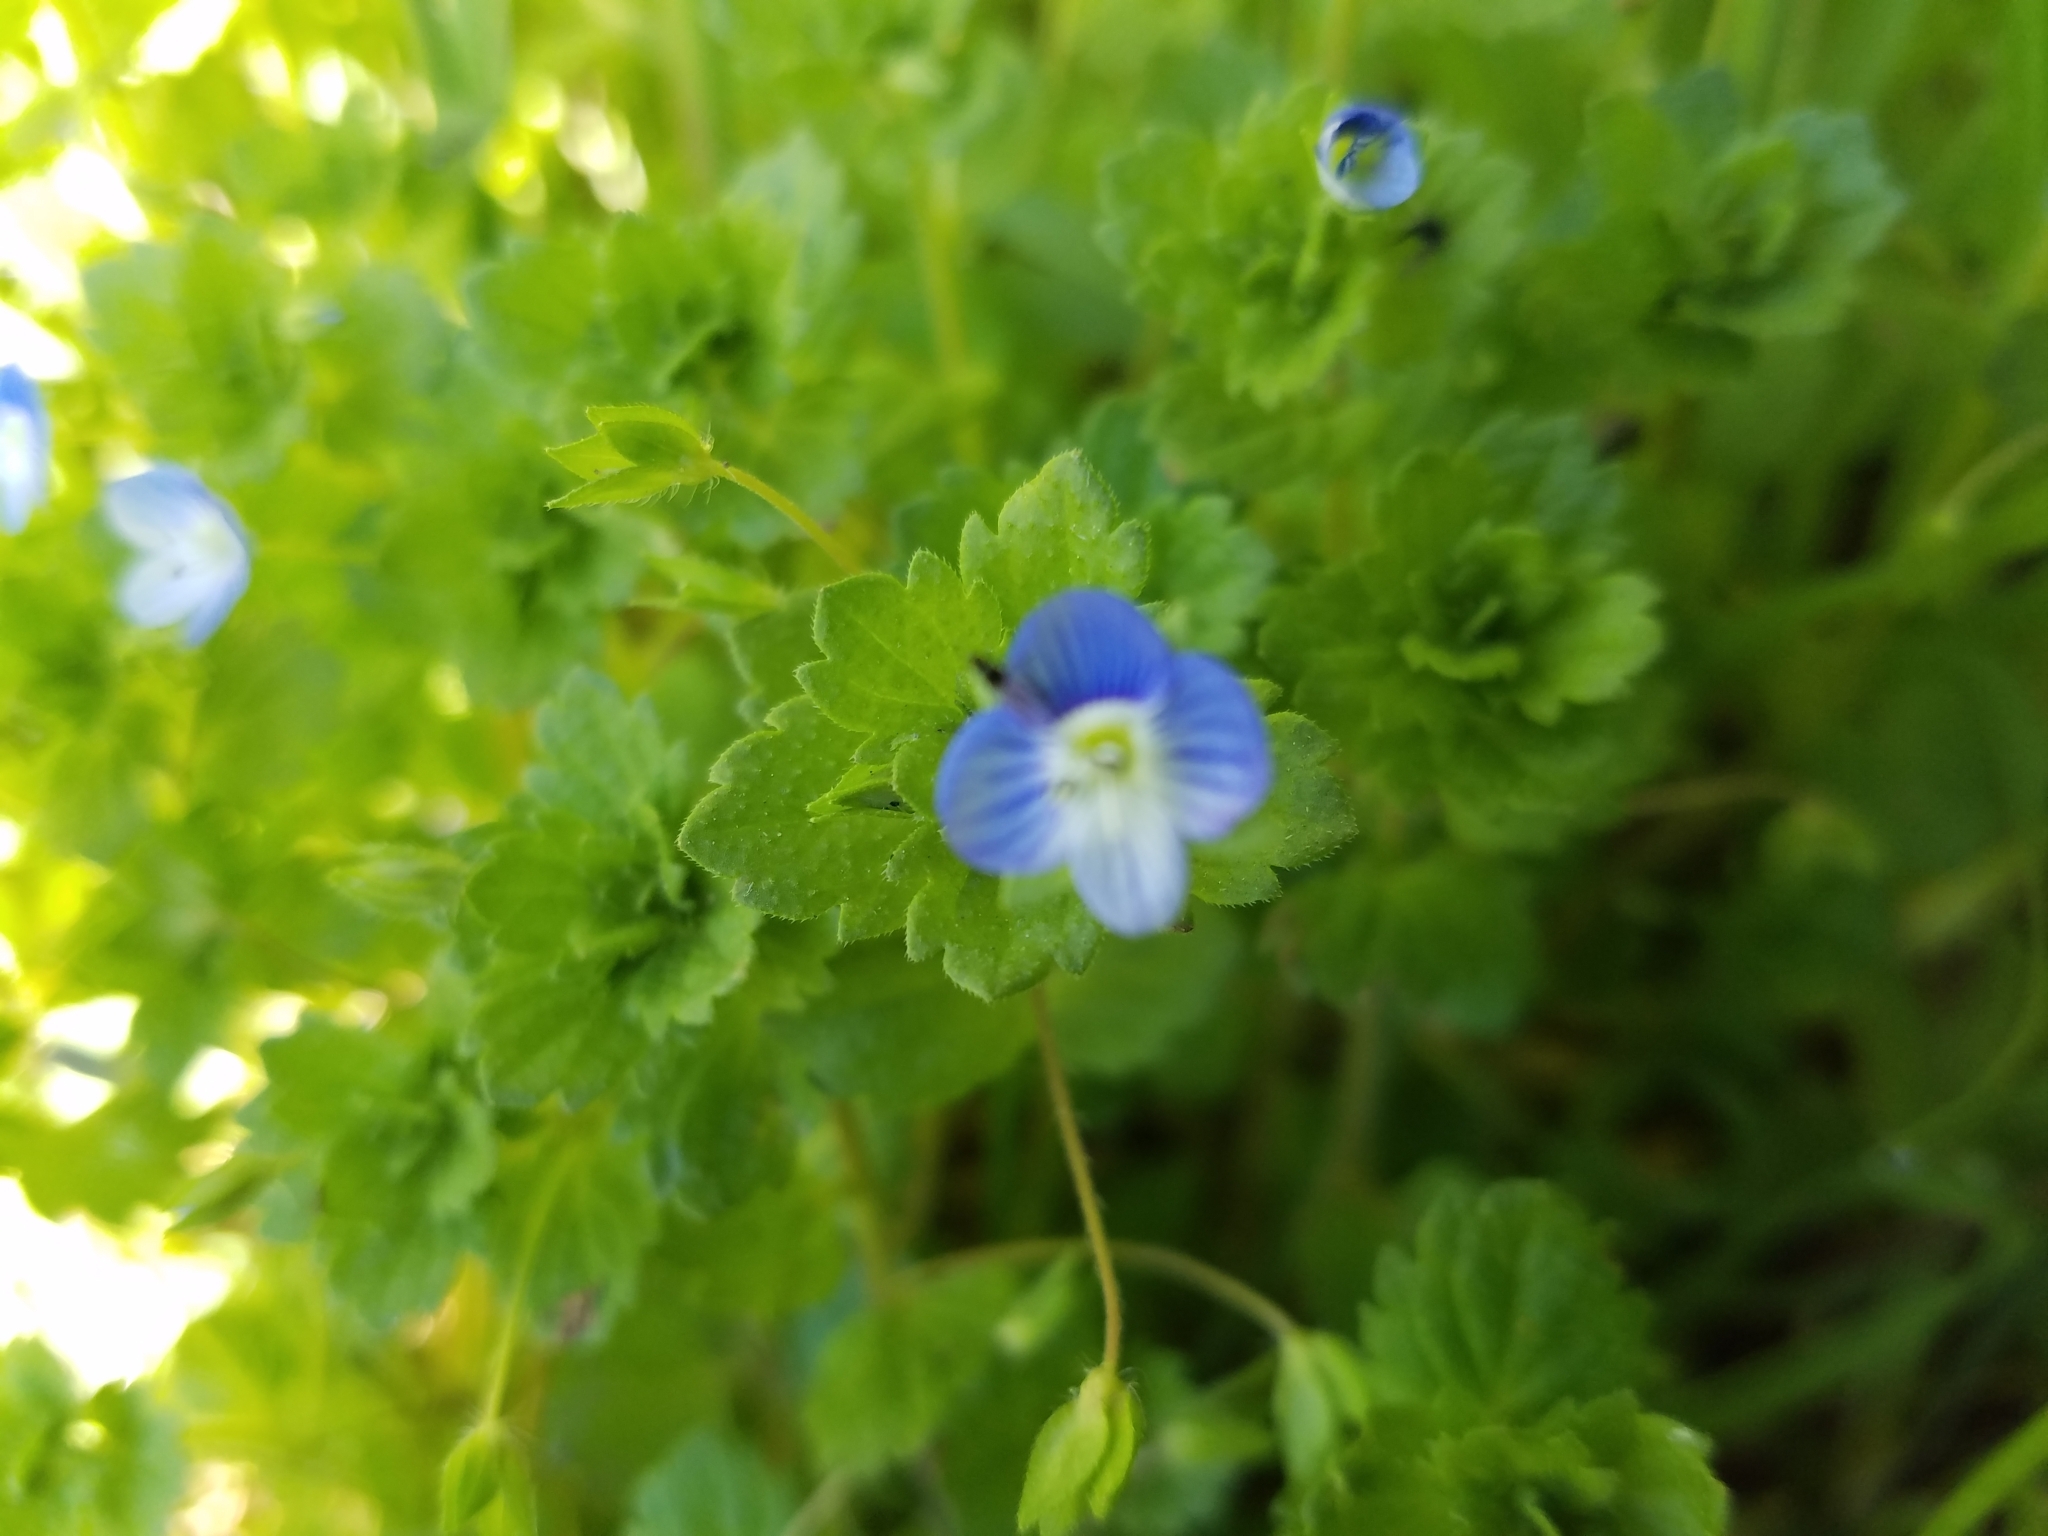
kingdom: Plantae
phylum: Tracheophyta
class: Magnoliopsida
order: Lamiales
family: Plantaginaceae
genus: Veronica
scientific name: Veronica persica
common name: Common field-speedwell
